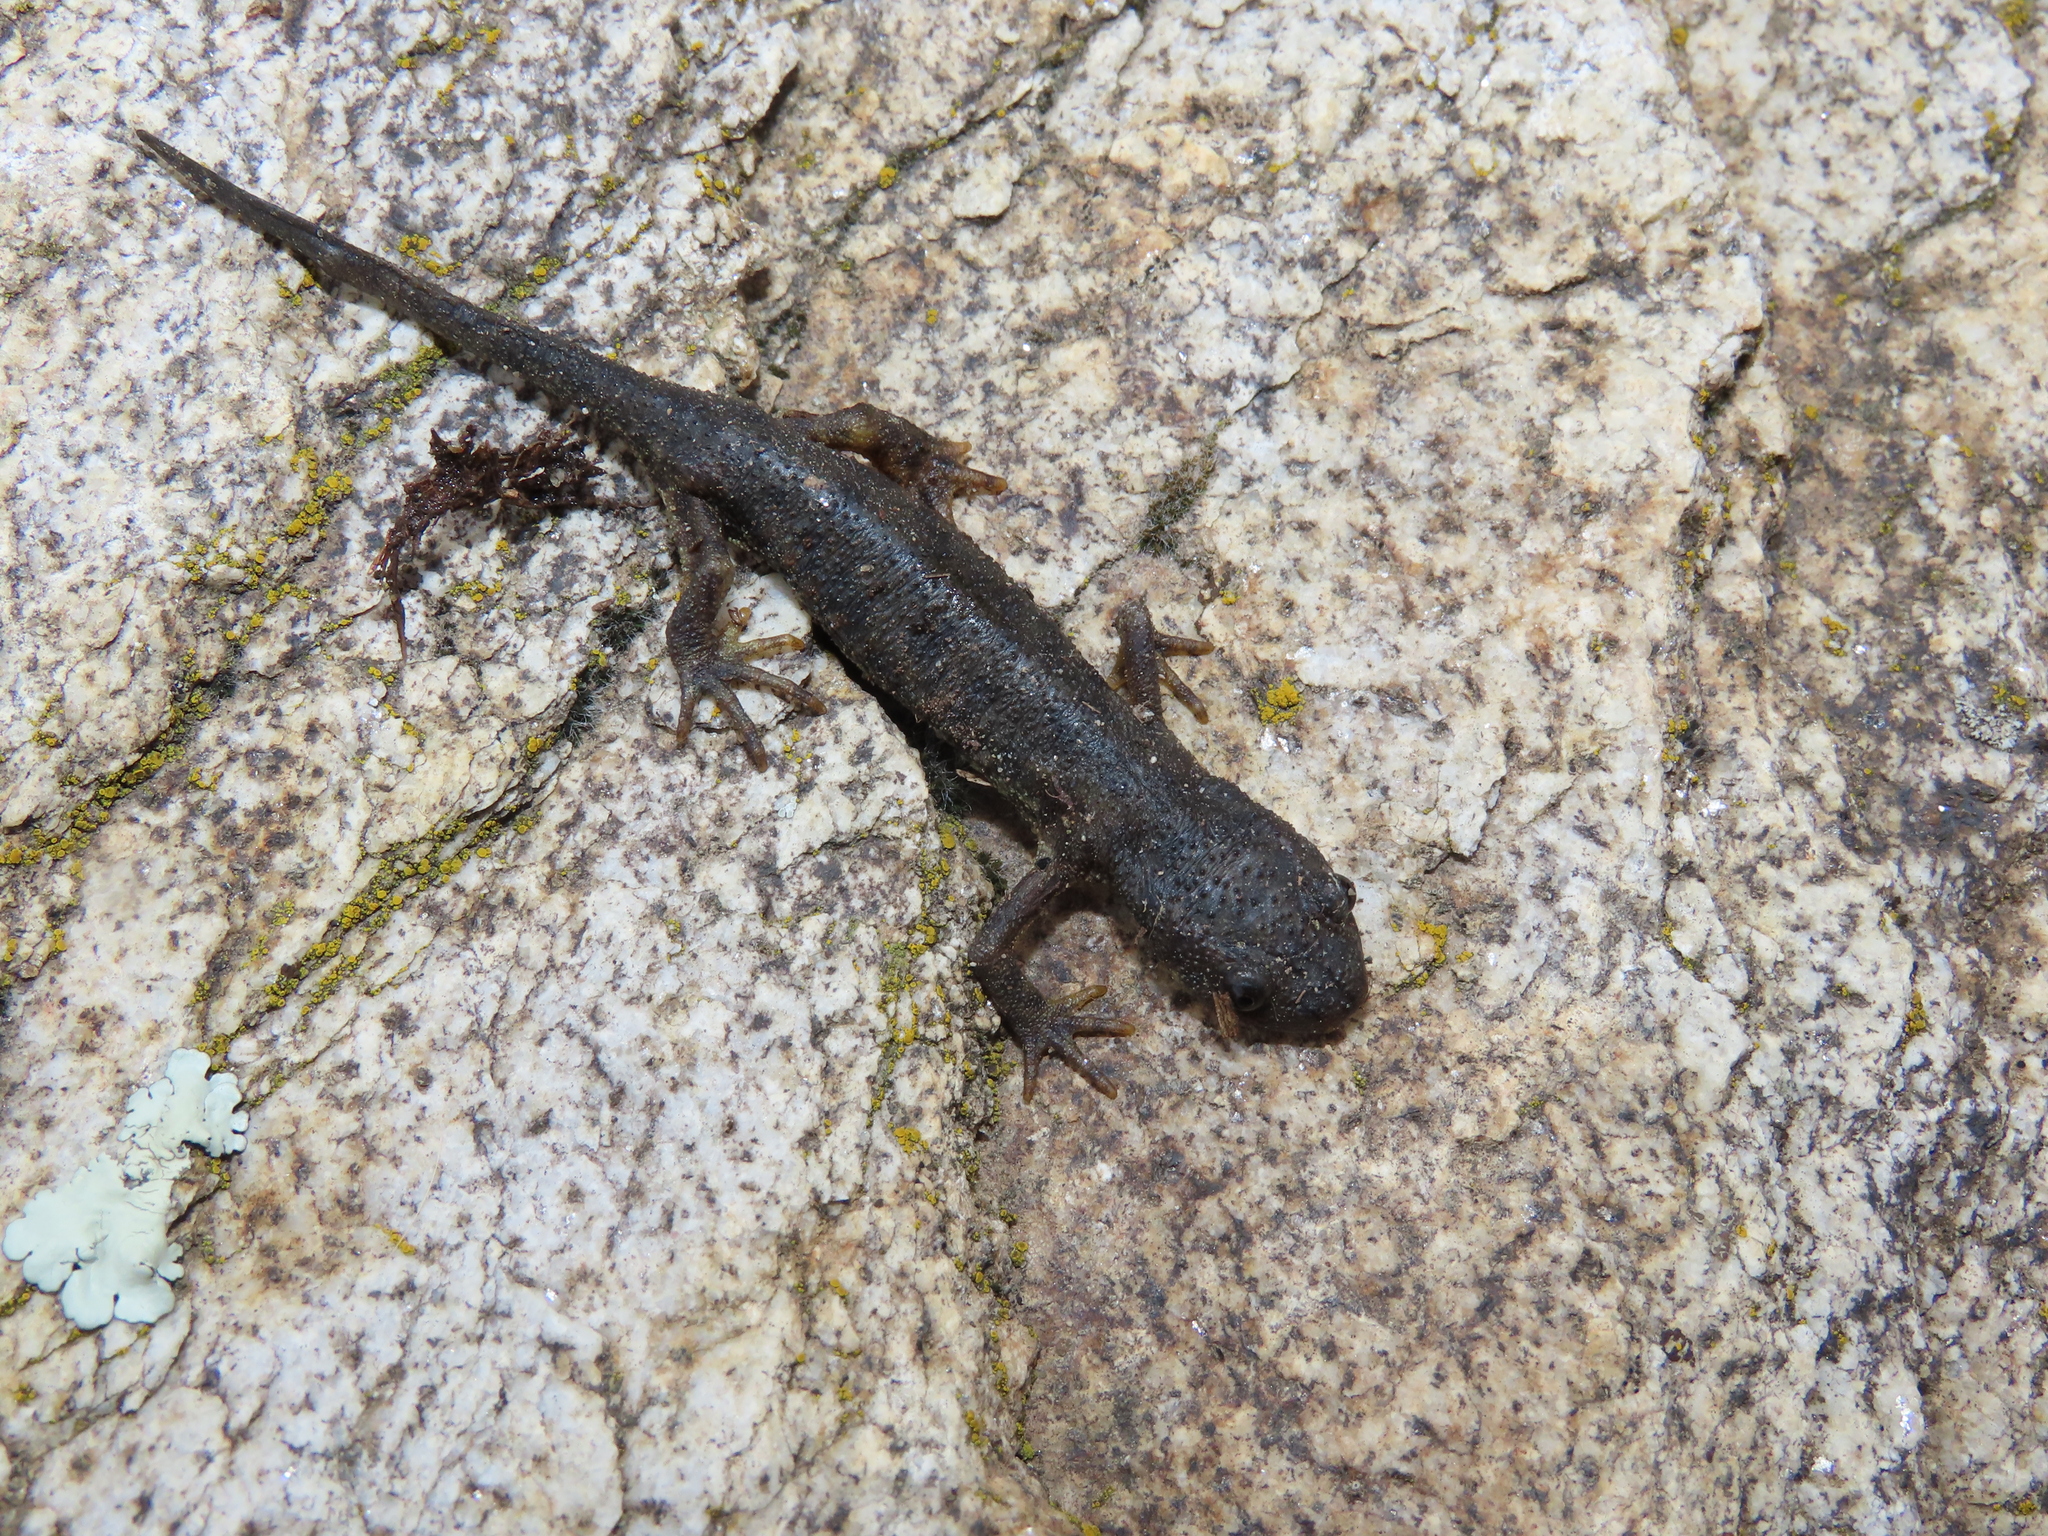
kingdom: Animalia
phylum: Chordata
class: Amphibia
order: Caudata
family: Salamandridae
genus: Pleurodeles
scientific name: Pleurodeles waltl
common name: Iberian ribbed newt
